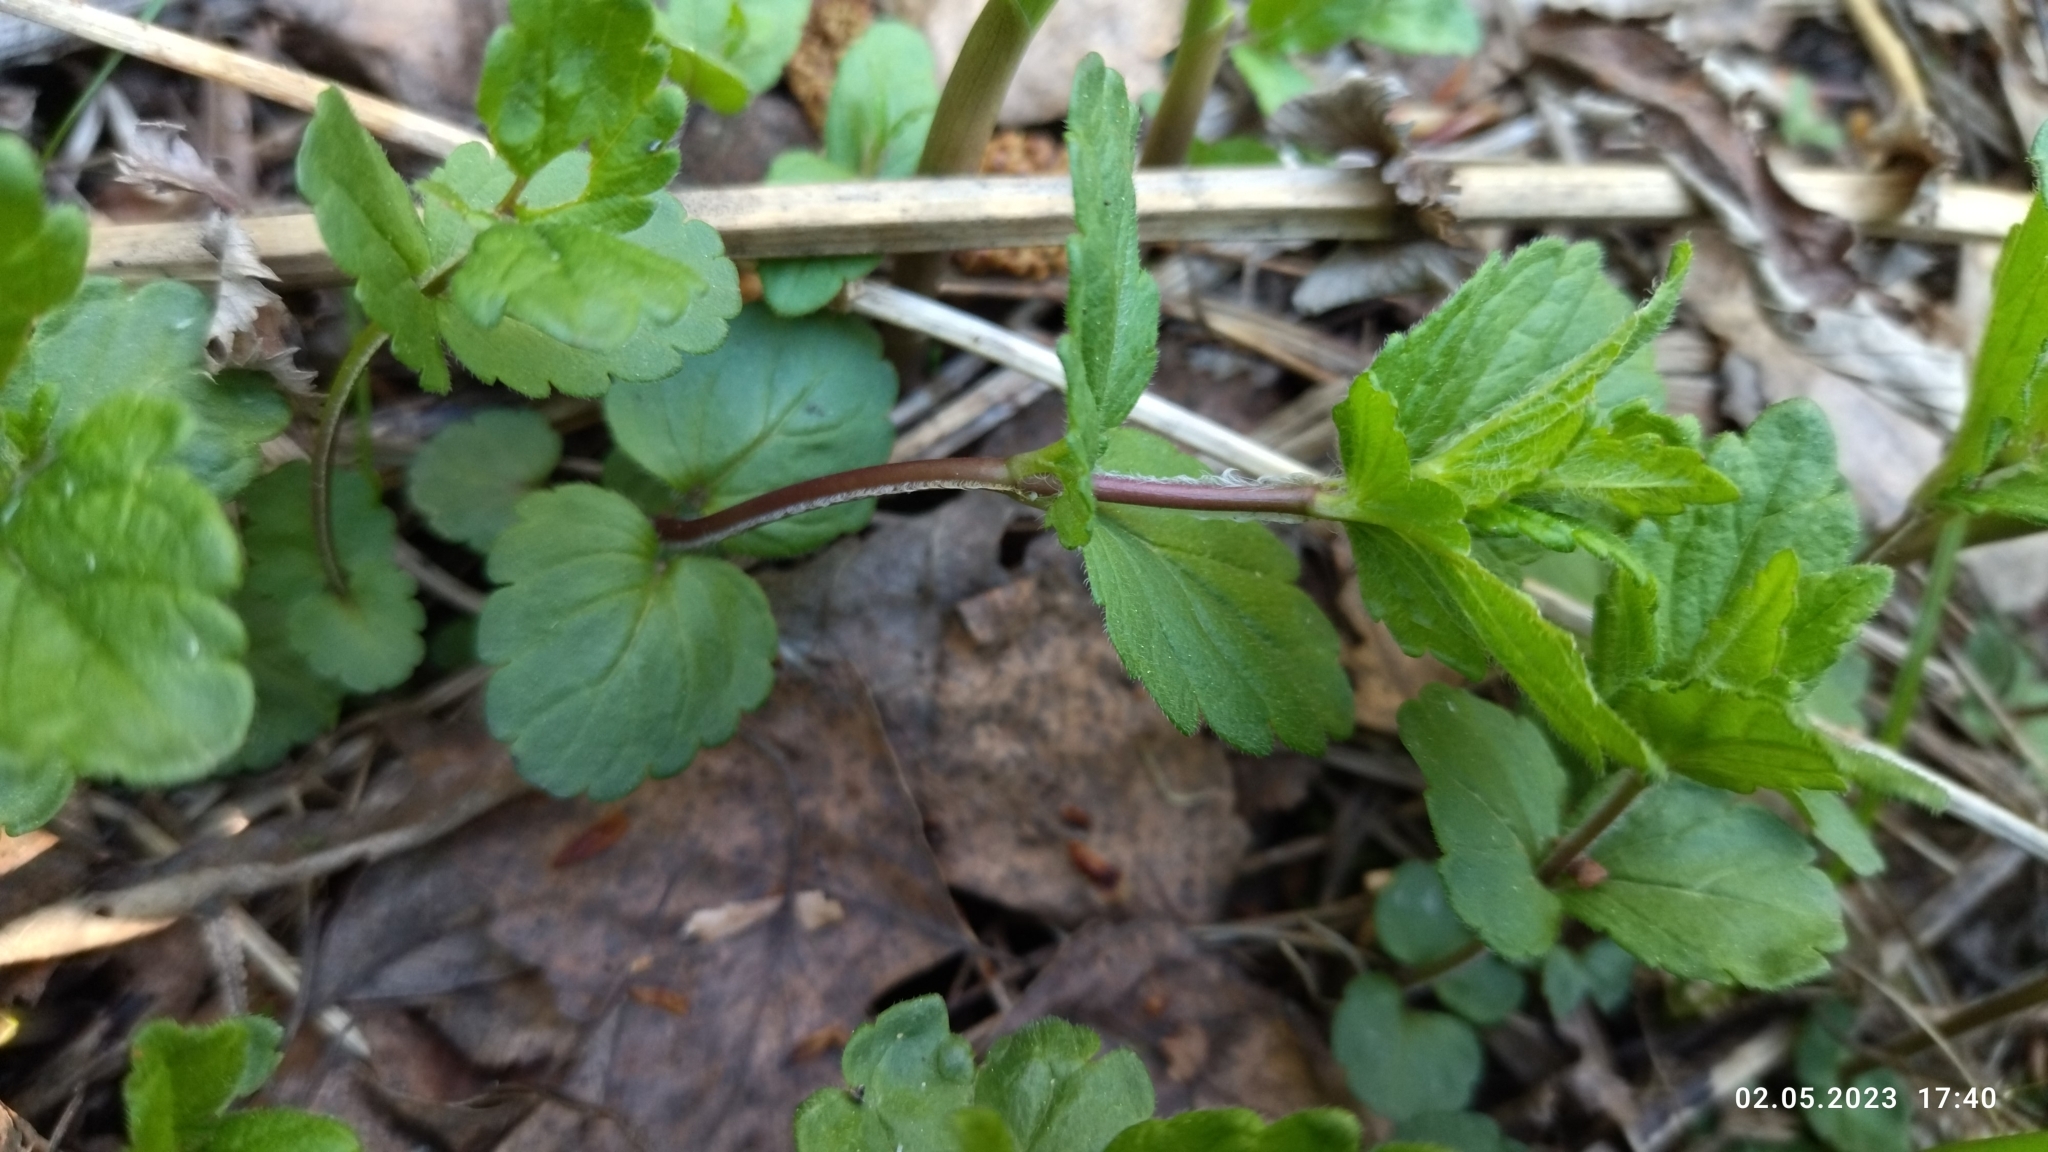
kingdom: Plantae
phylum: Tracheophyta
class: Magnoliopsida
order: Lamiales
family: Plantaginaceae
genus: Veronica
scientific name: Veronica chamaedrys
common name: Germander speedwell
